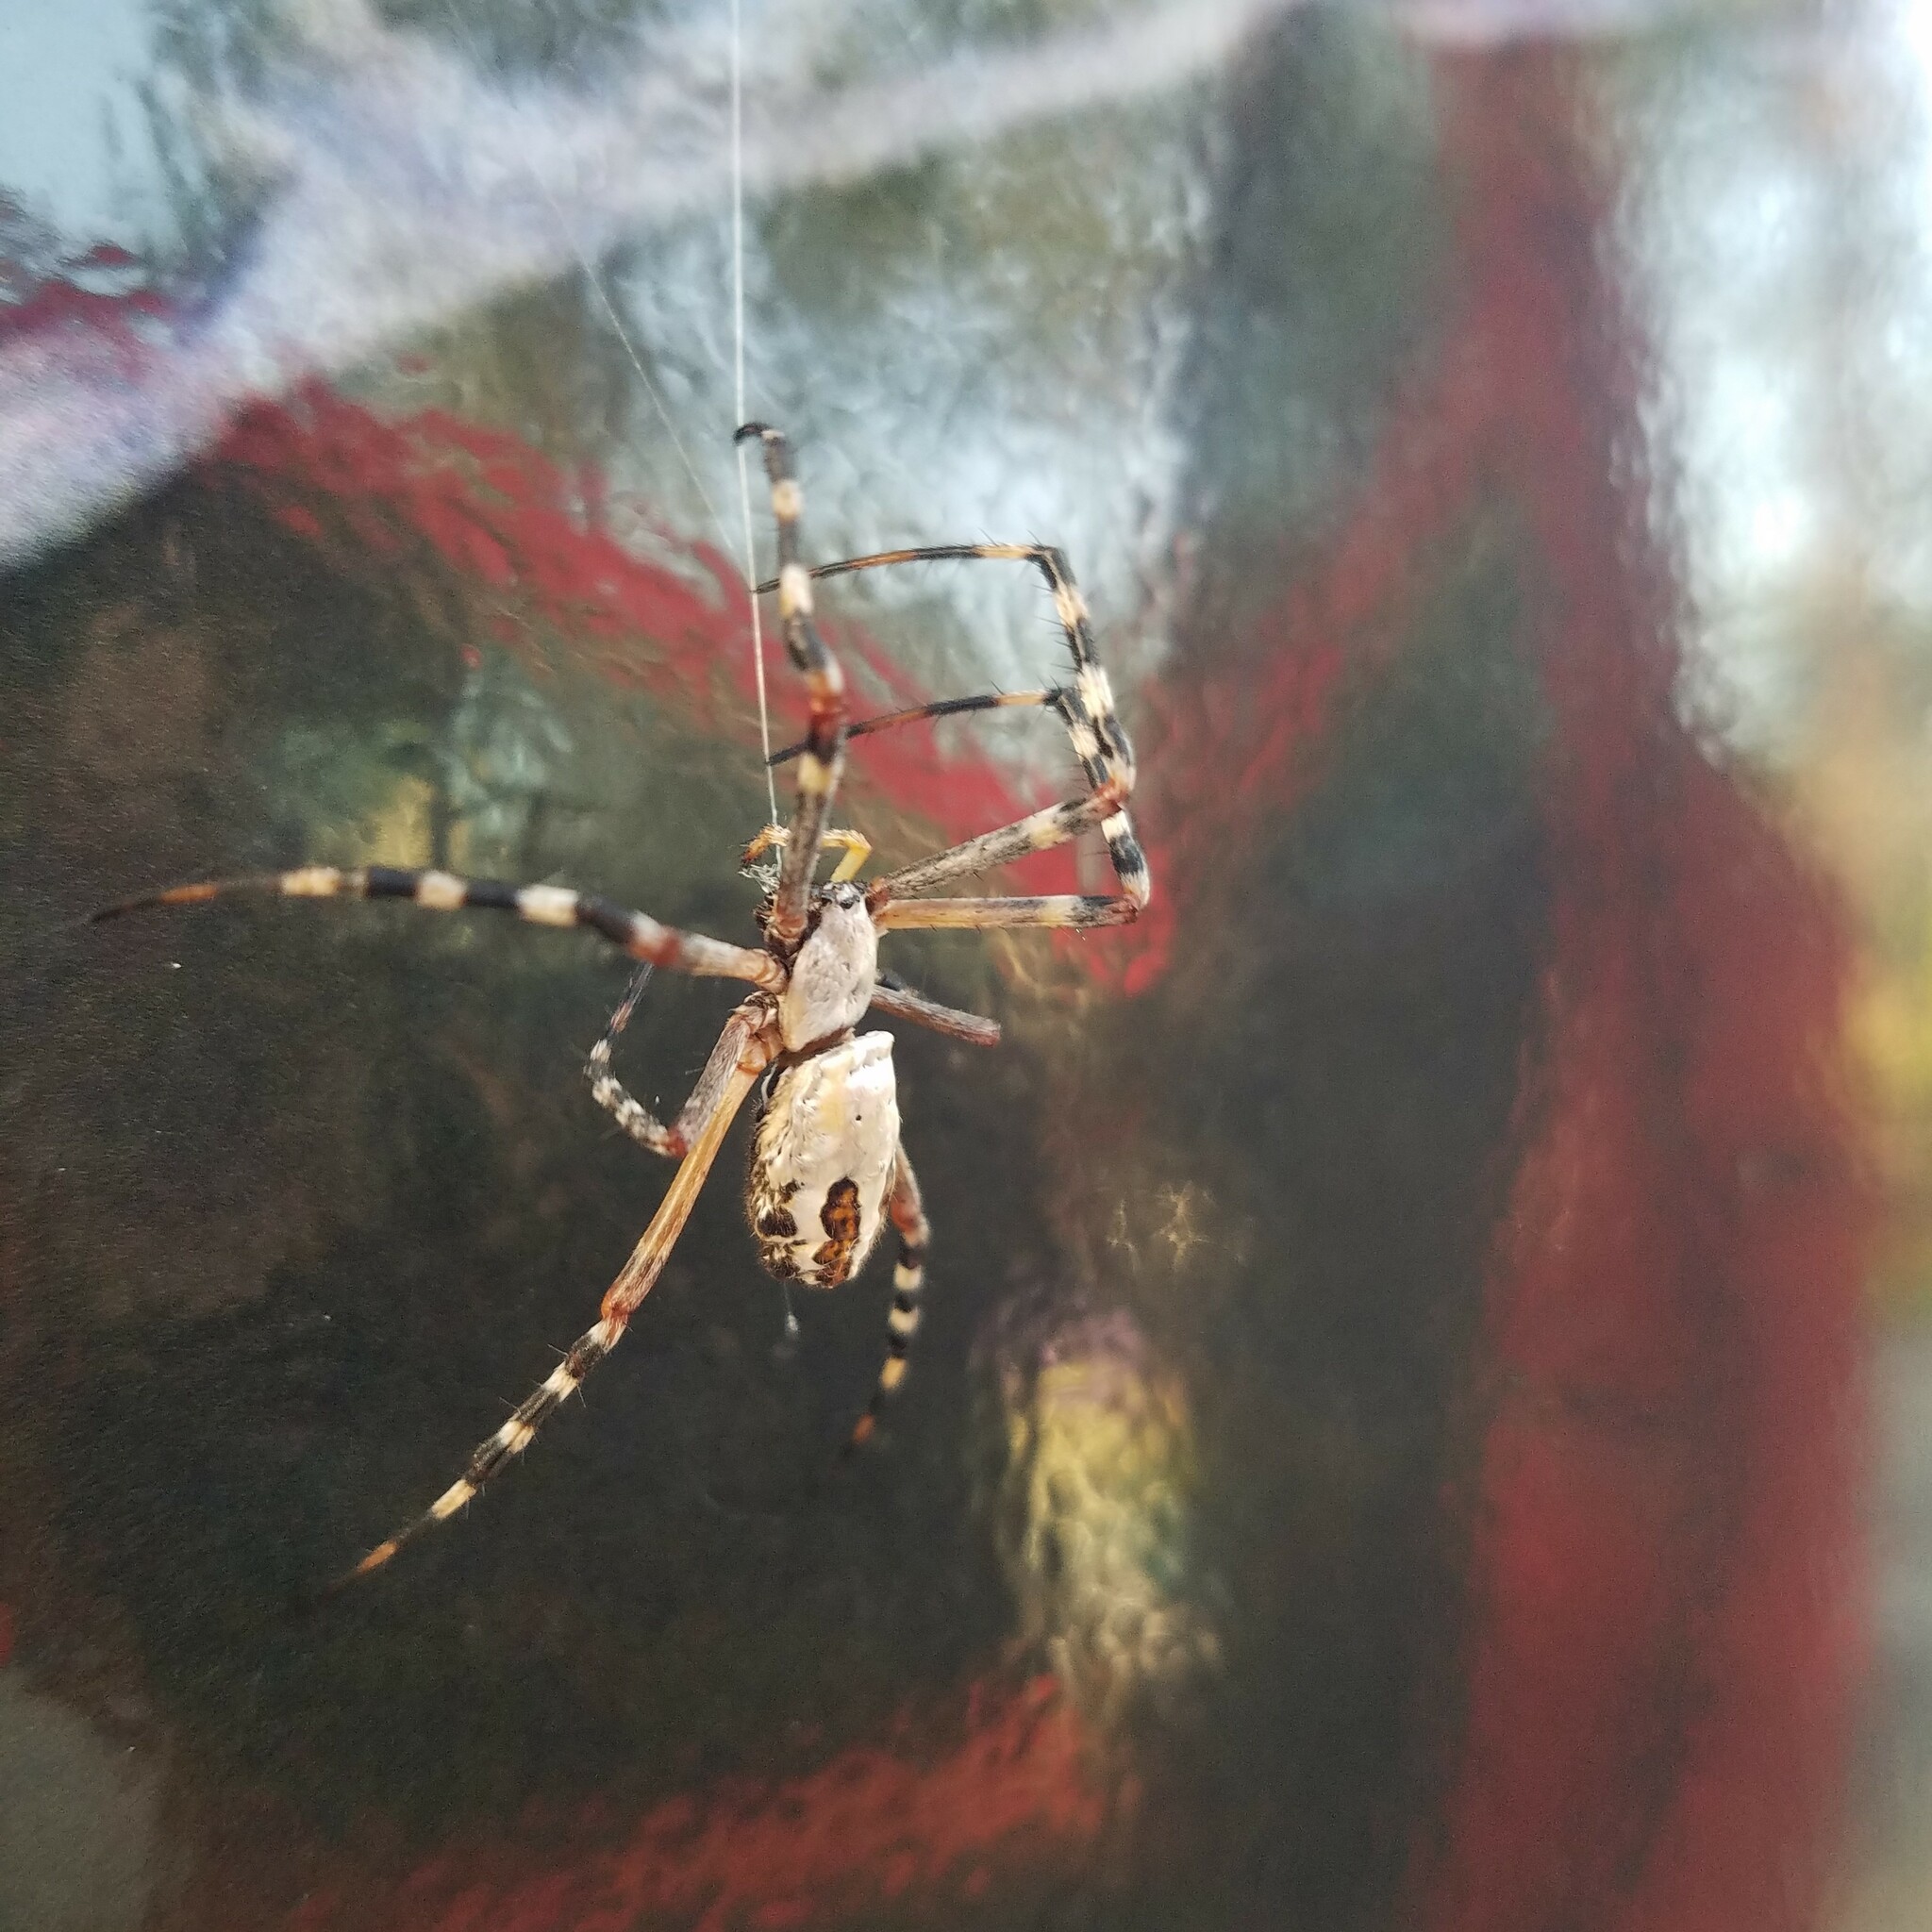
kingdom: Animalia
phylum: Arthropoda
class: Arachnida
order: Araneae
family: Araneidae
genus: Argiope
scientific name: Argiope florida
